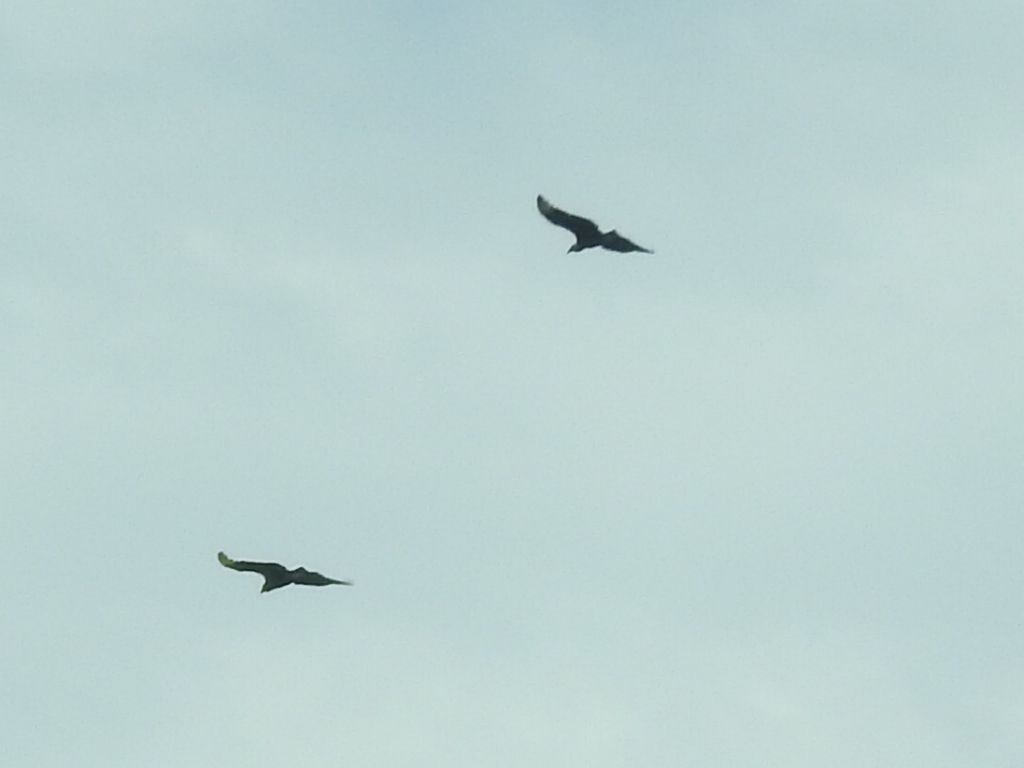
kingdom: Animalia
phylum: Chordata
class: Aves
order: Accipitriformes
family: Cathartidae
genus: Coragyps
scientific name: Coragyps atratus
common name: Black vulture
